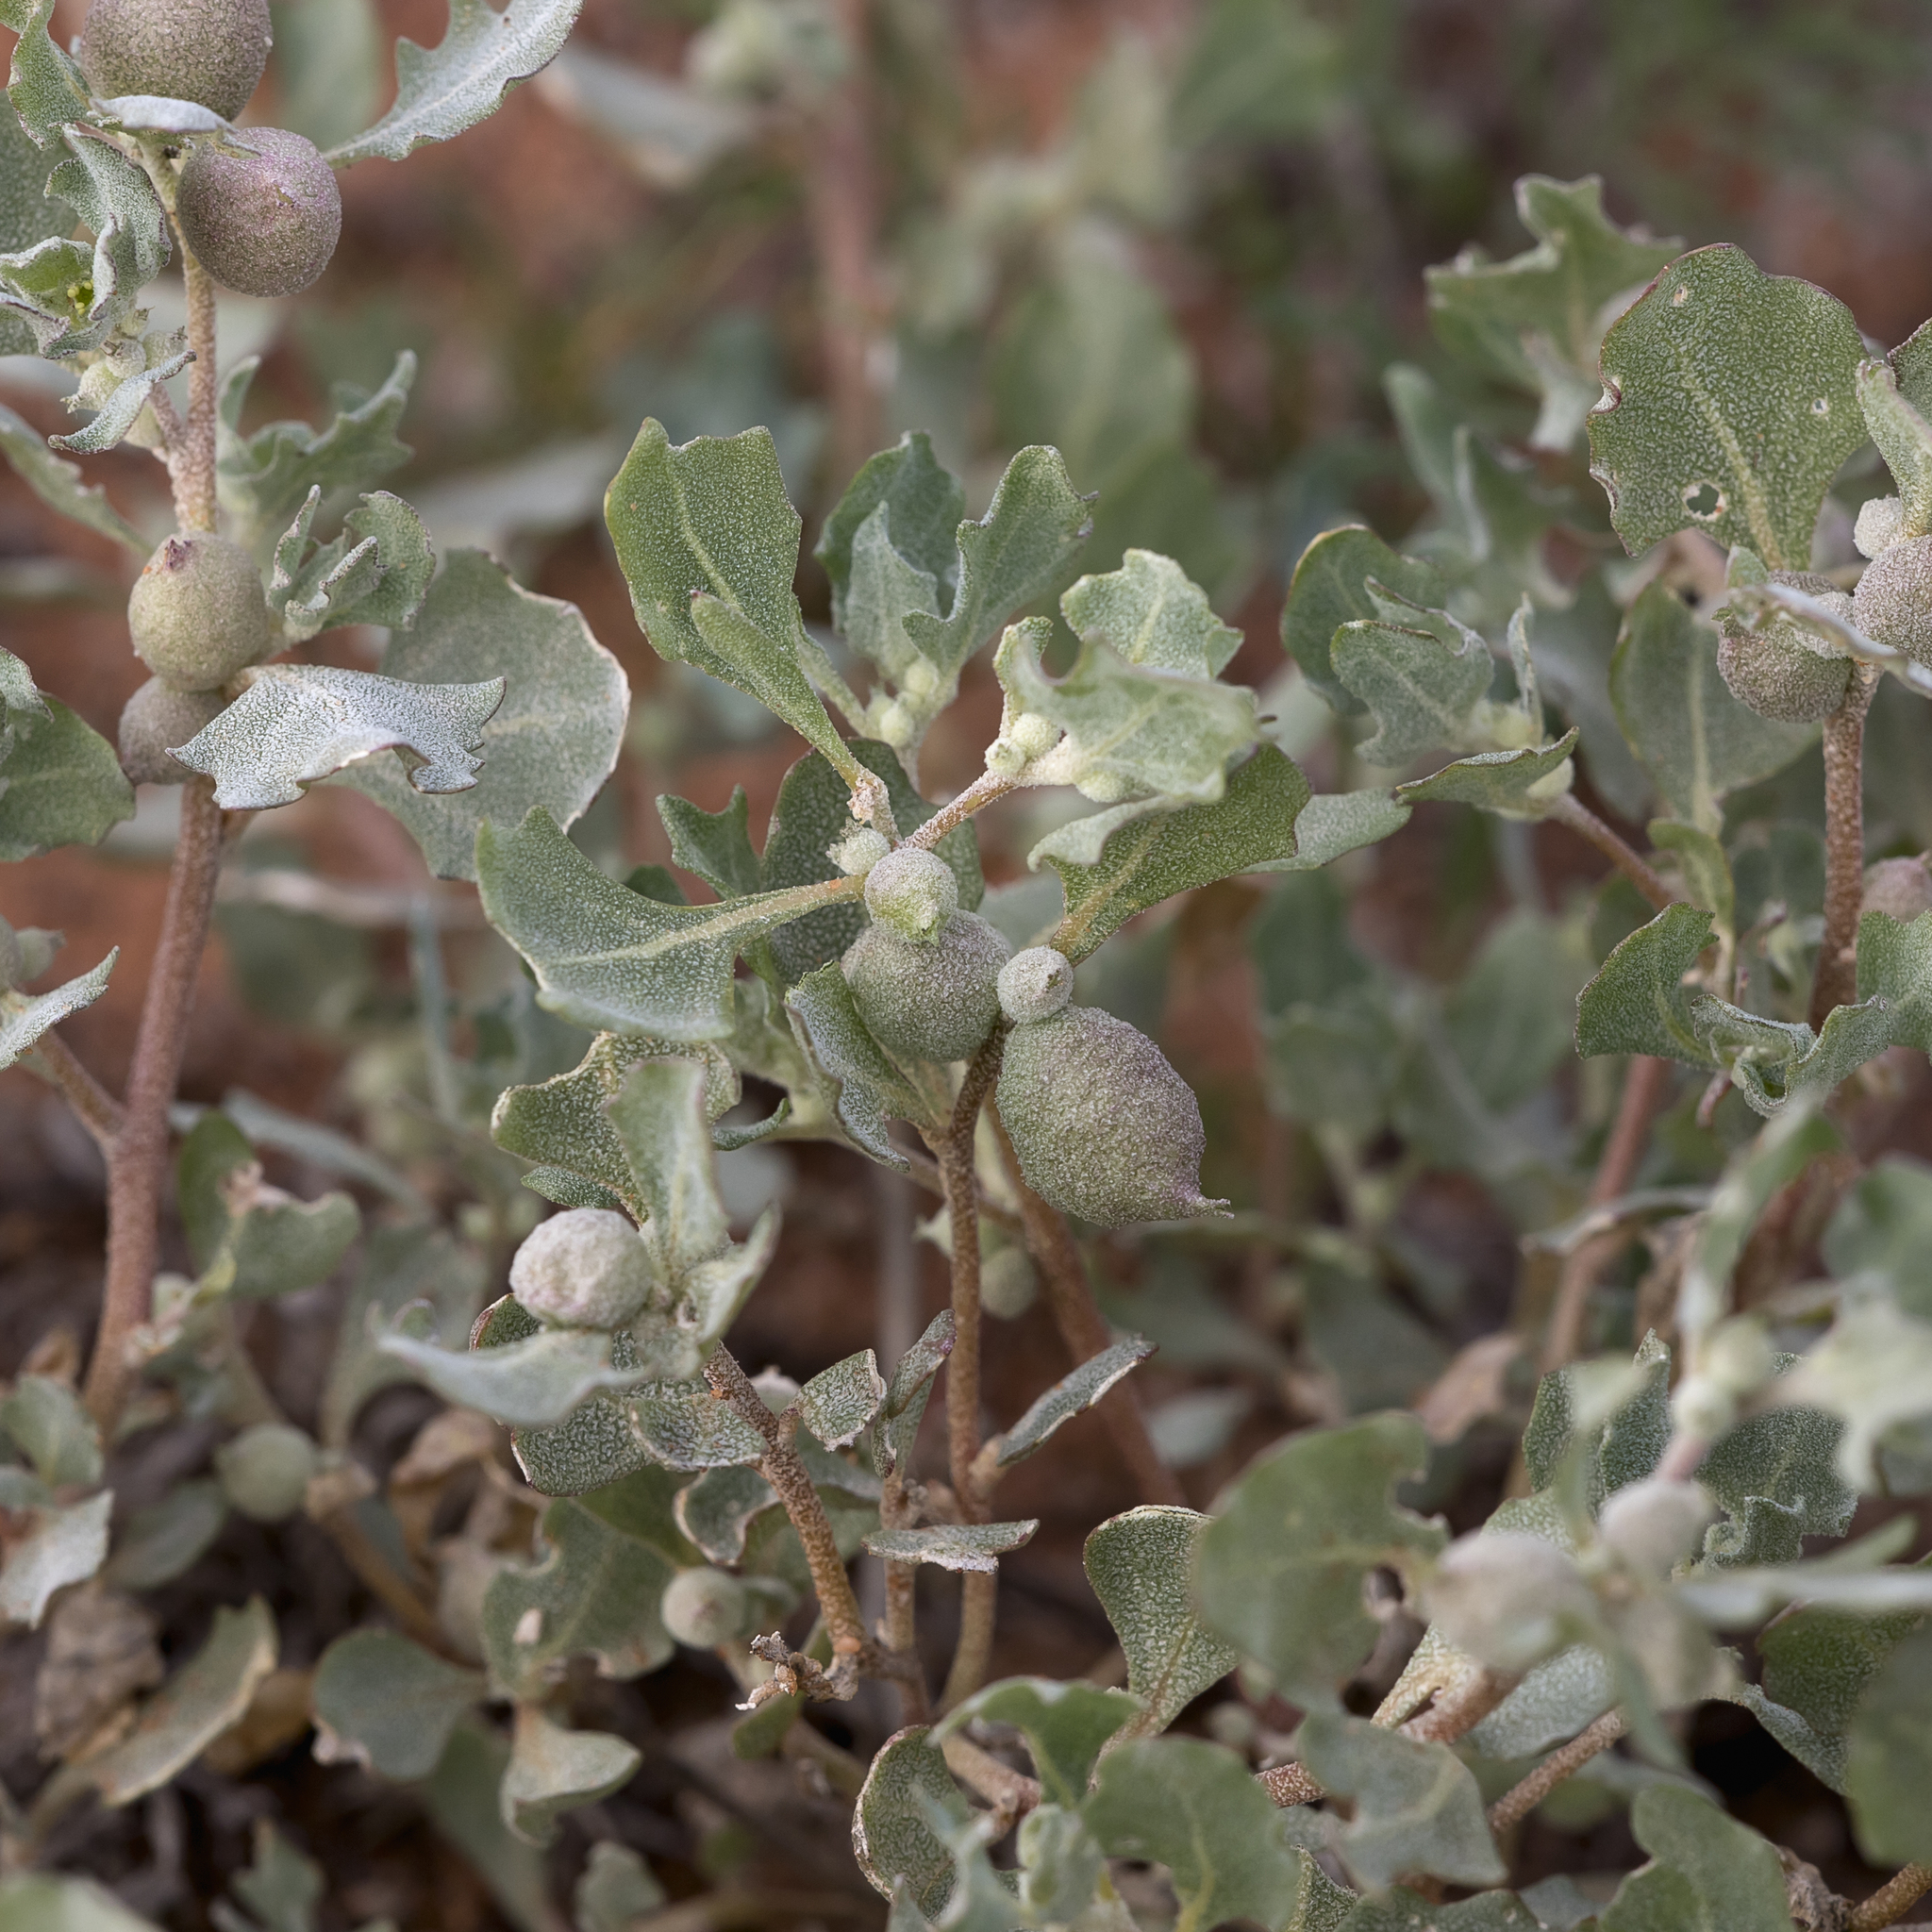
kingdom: Plantae
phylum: Tracheophyta
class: Magnoliopsida
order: Caryophyllales
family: Amaranthaceae
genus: Atriplex
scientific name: Atriplex holocarpa
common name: Pop saltbush
